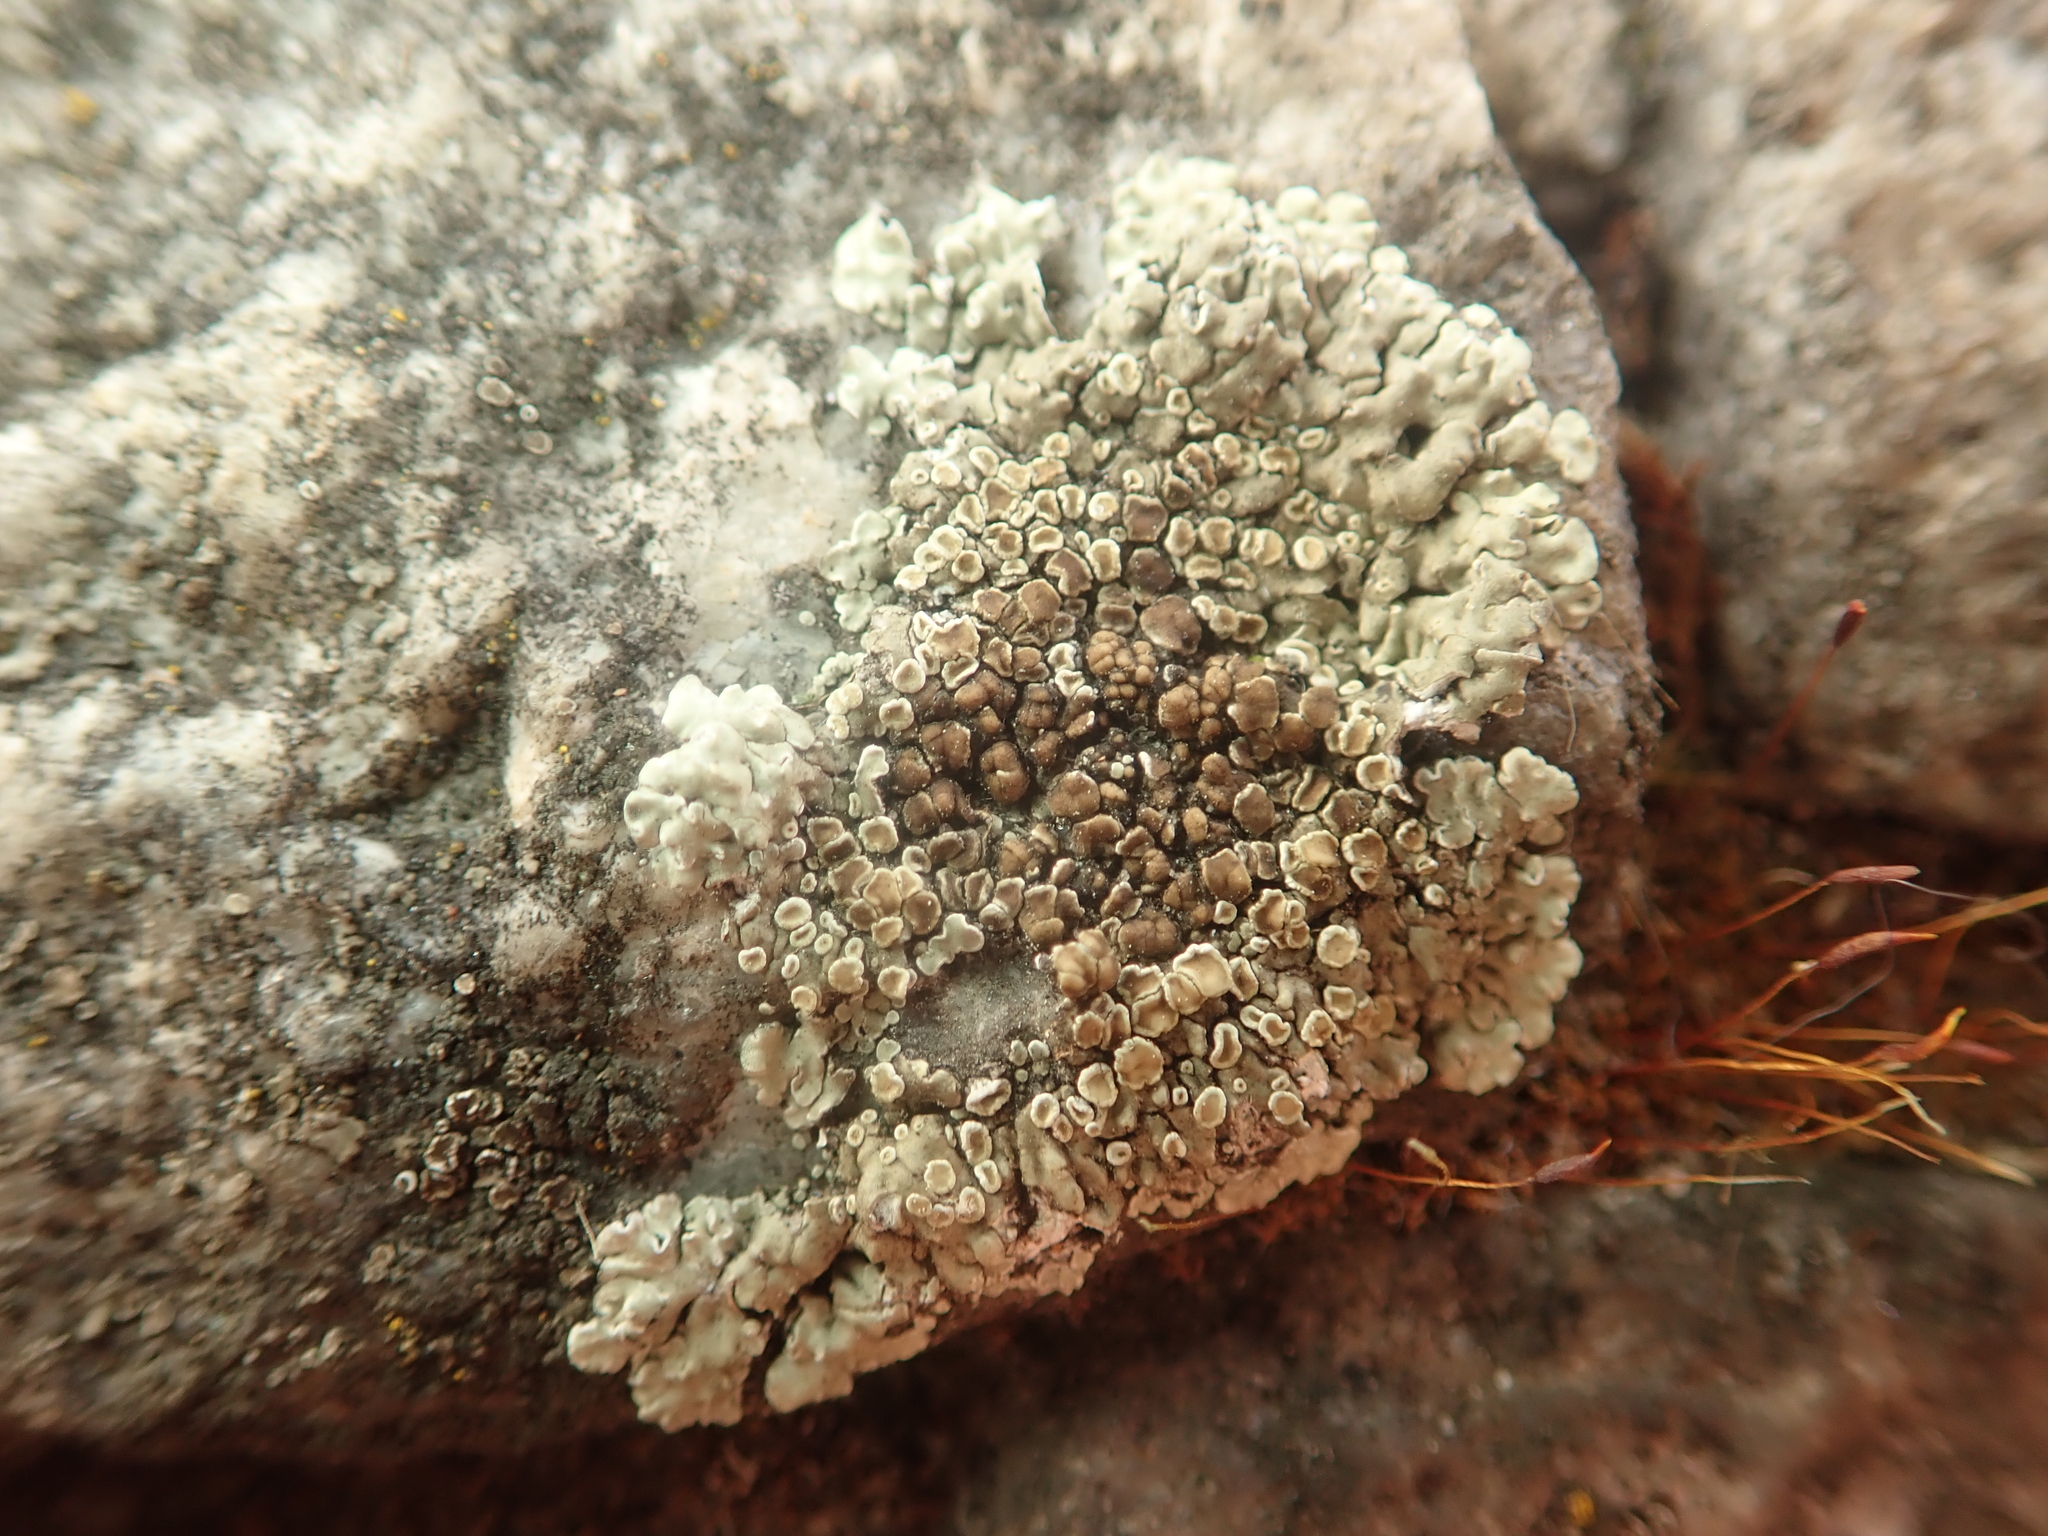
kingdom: Fungi
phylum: Ascomycota
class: Lecanoromycetes
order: Lecanorales
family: Lecanoraceae
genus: Protoparmeliopsis
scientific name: Protoparmeliopsis muralis
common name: Stonewall rim lichen
